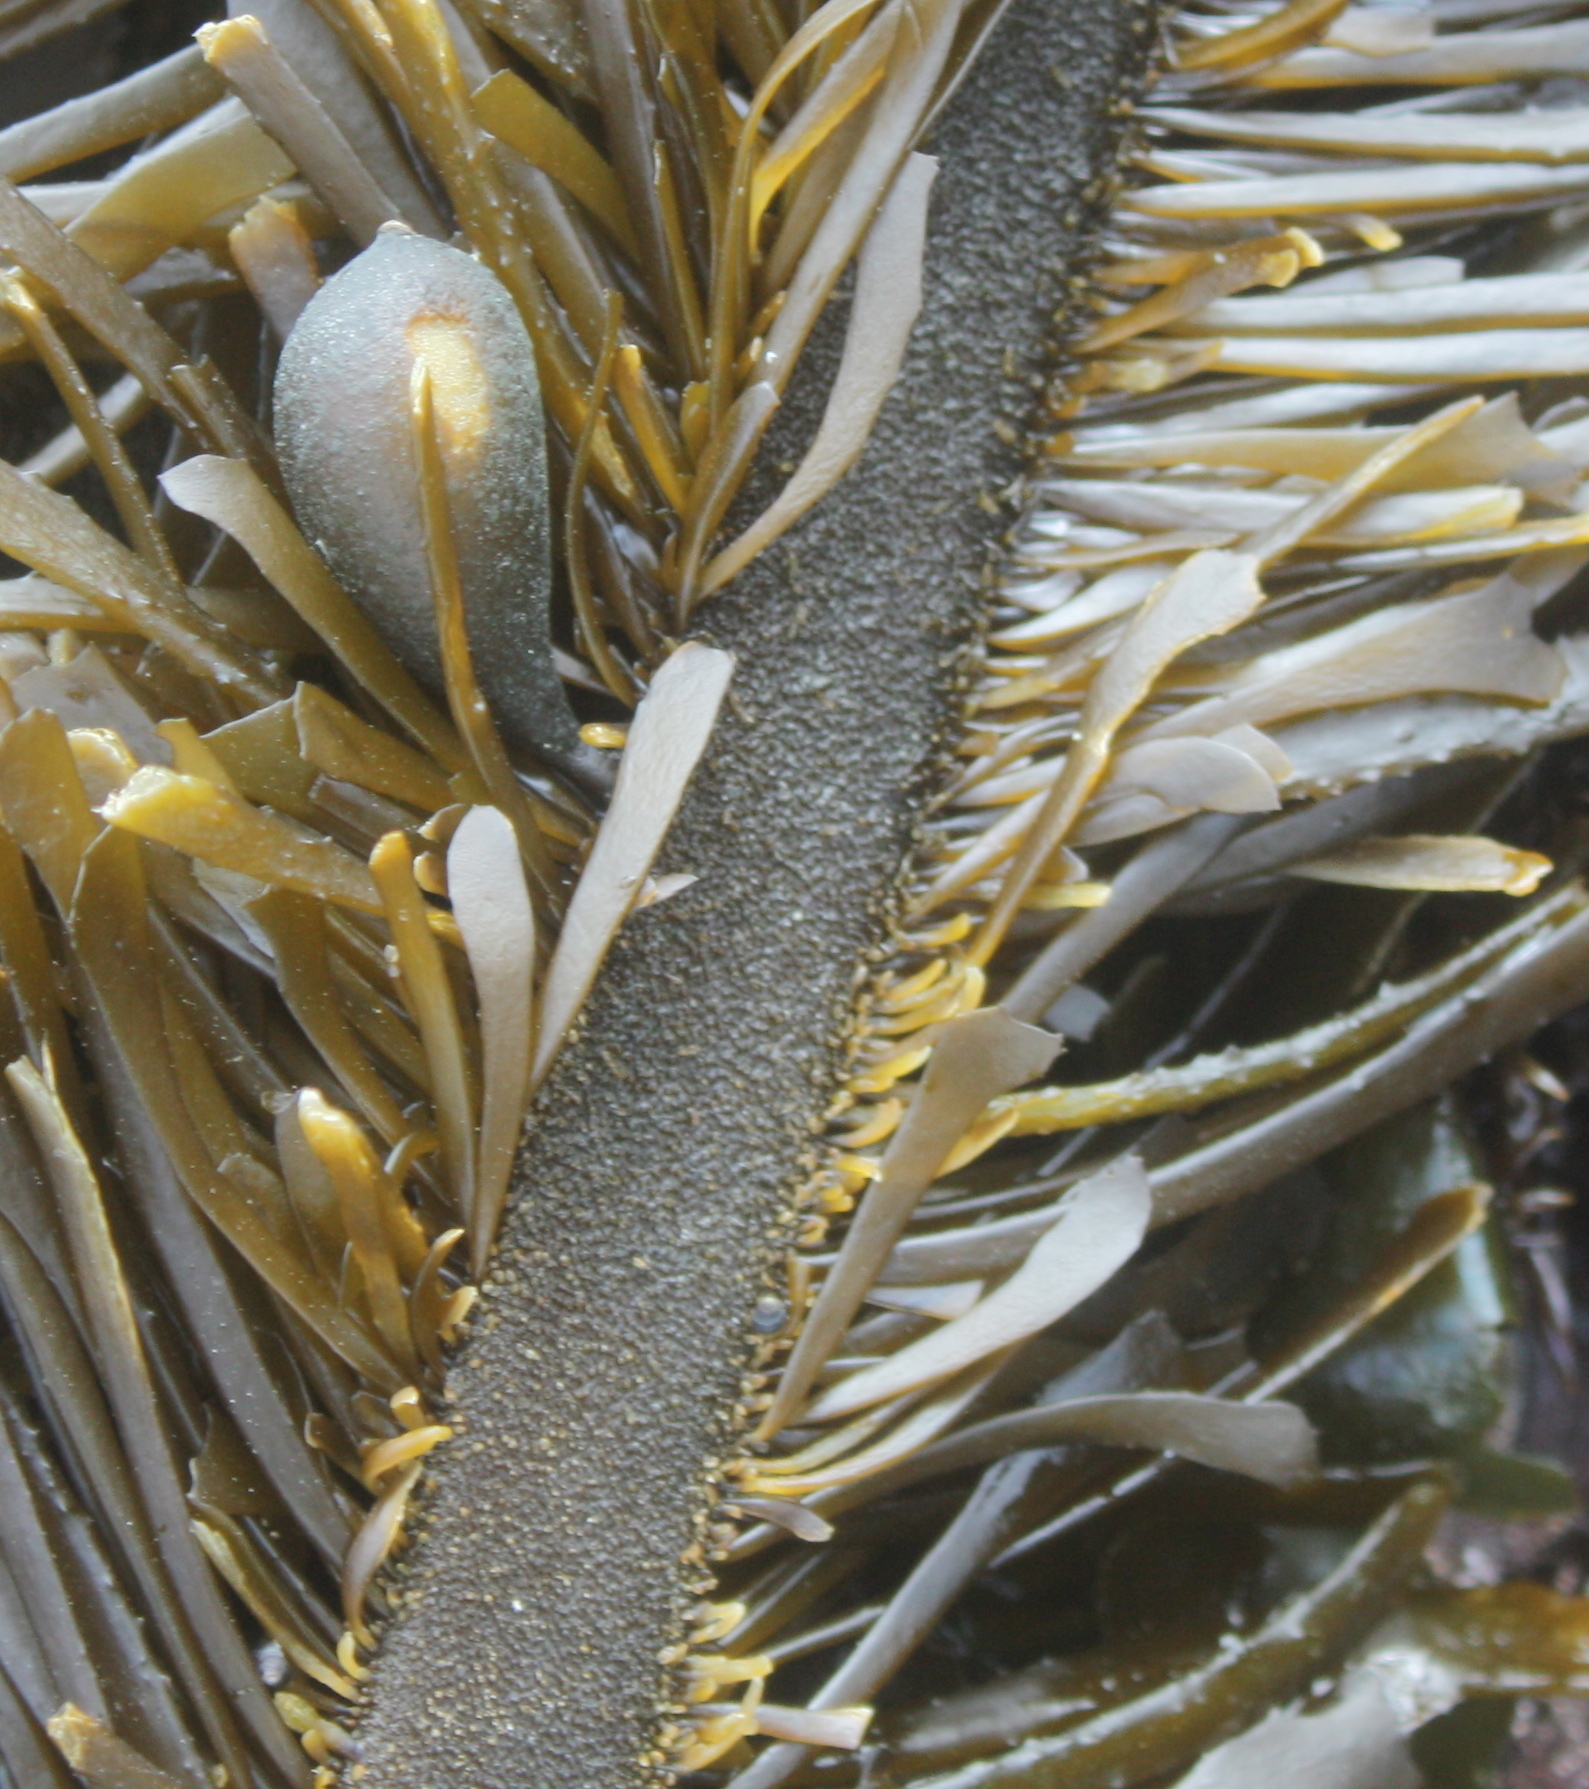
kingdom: Chromista
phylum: Ochrophyta
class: Phaeophyceae
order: Laminariales
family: Lessoniaceae
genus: Egregia
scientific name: Egregia menziesii
